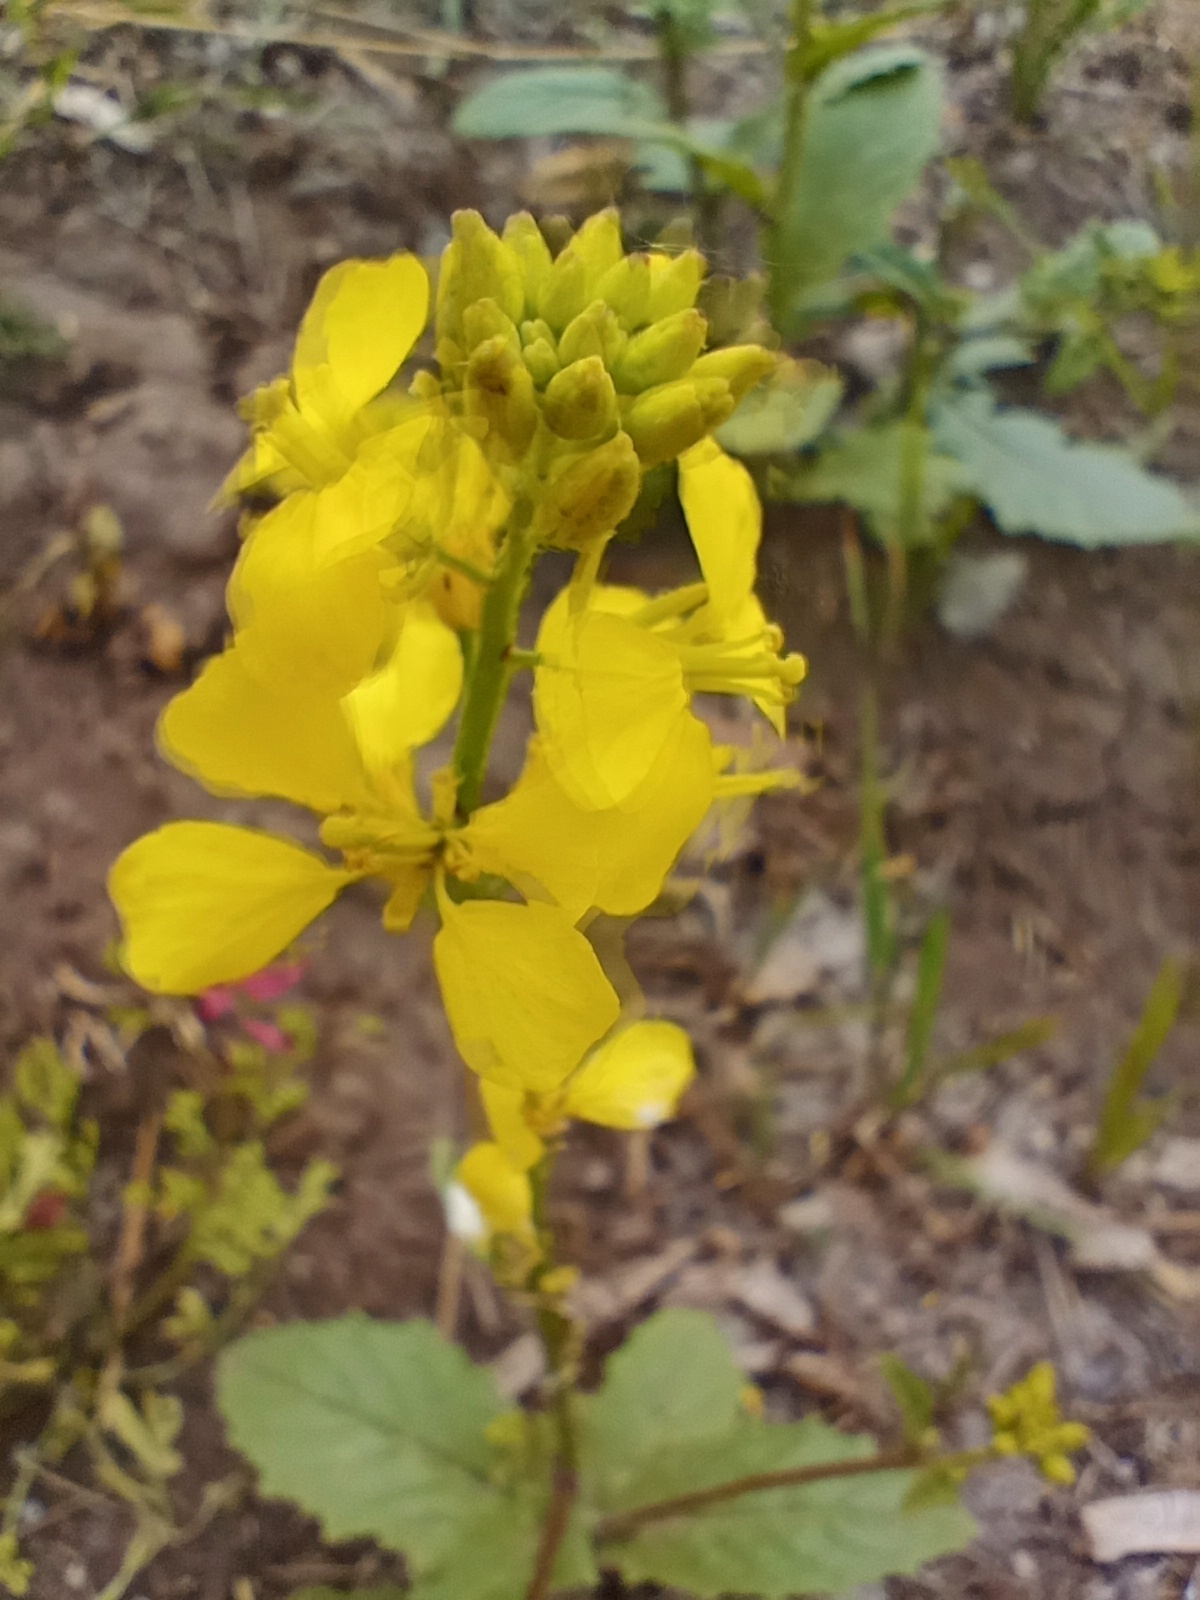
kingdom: Plantae
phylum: Tracheophyta
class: Magnoliopsida
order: Brassicales
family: Brassicaceae
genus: Sinapis
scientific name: Sinapis arvensis
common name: Charlock
